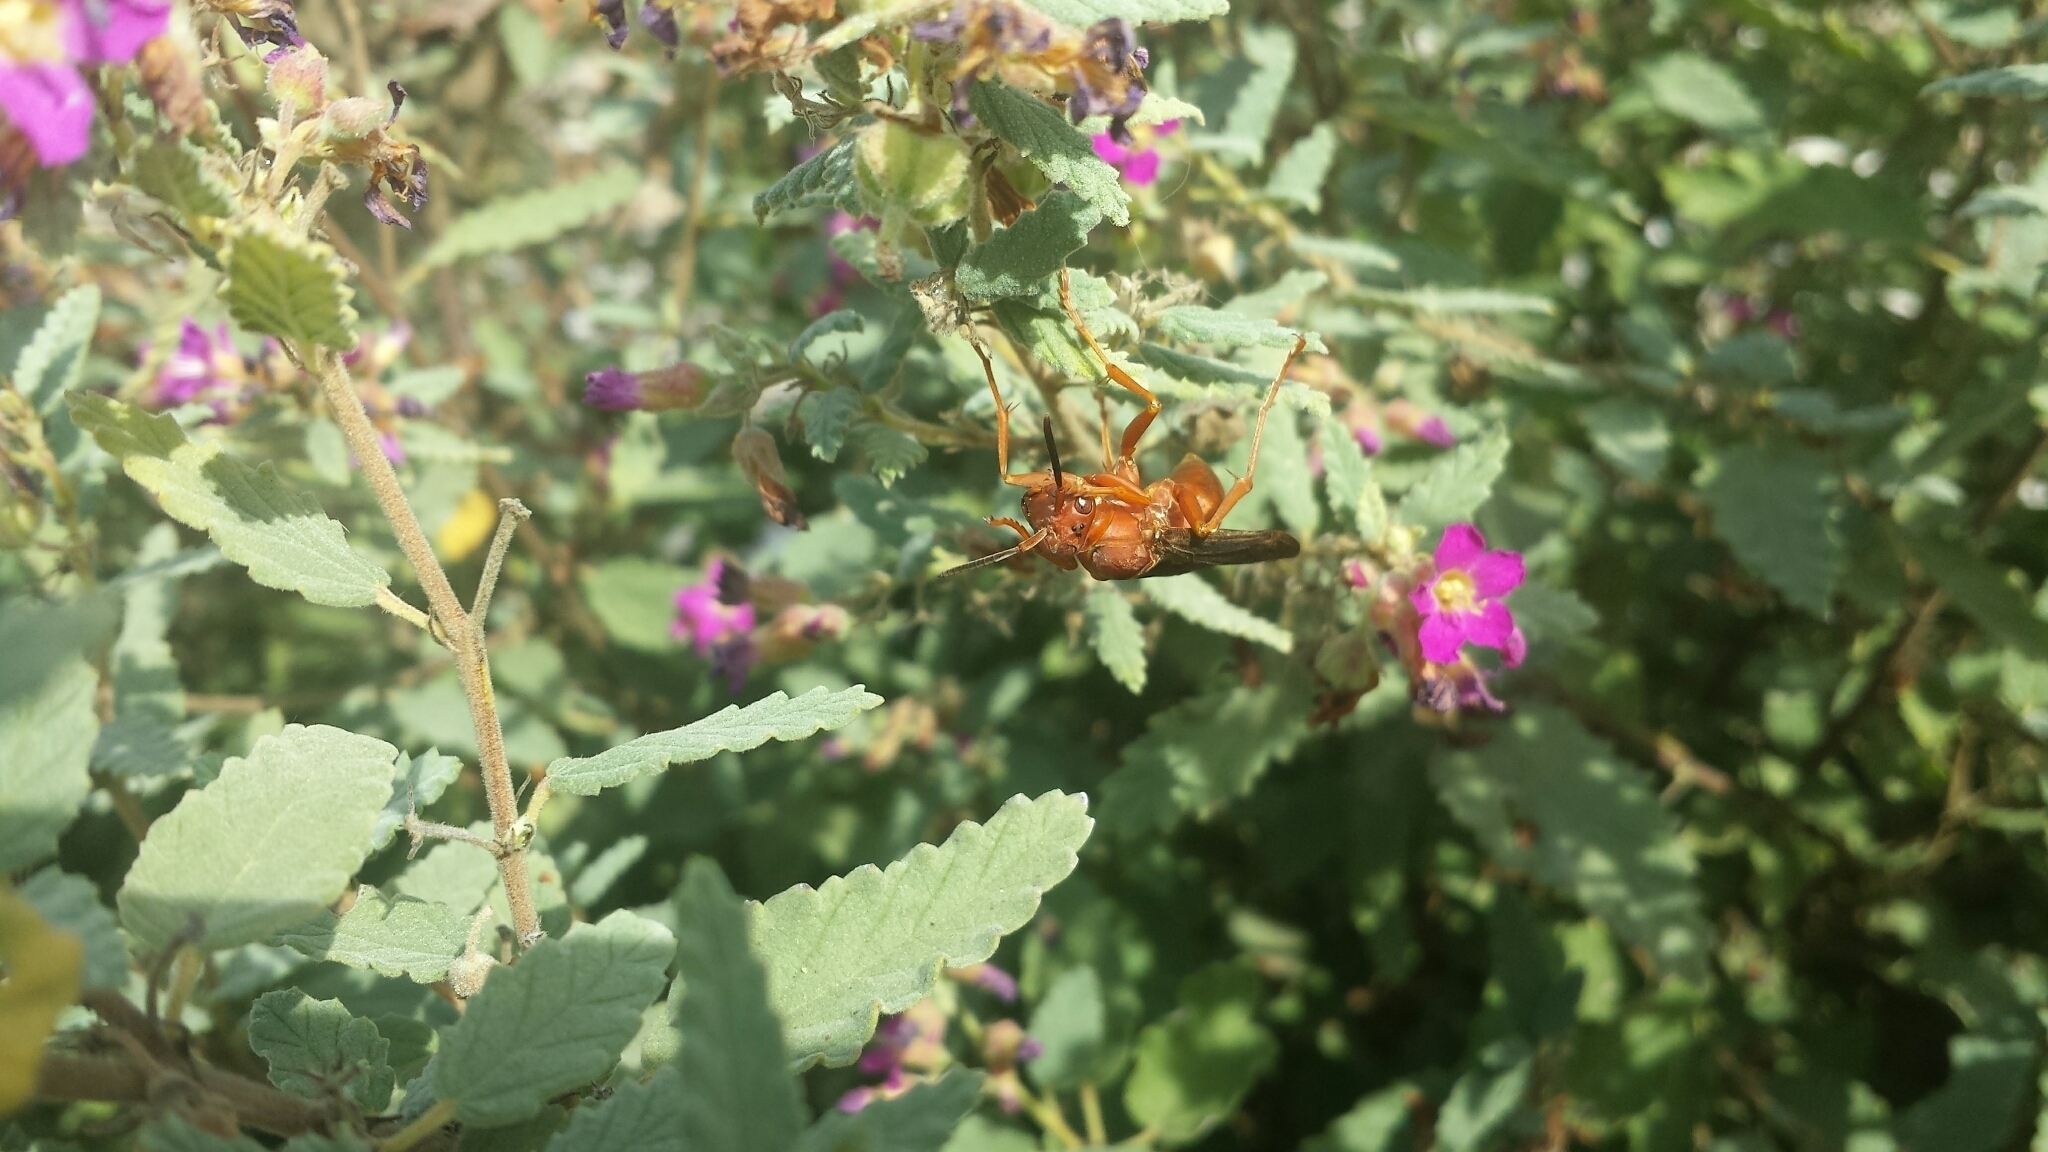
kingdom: Animalia
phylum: Arthropoda
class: Insecta
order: Hymenoptera
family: Vespidae
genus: Fuscopolistes
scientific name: Fuscopolistes
